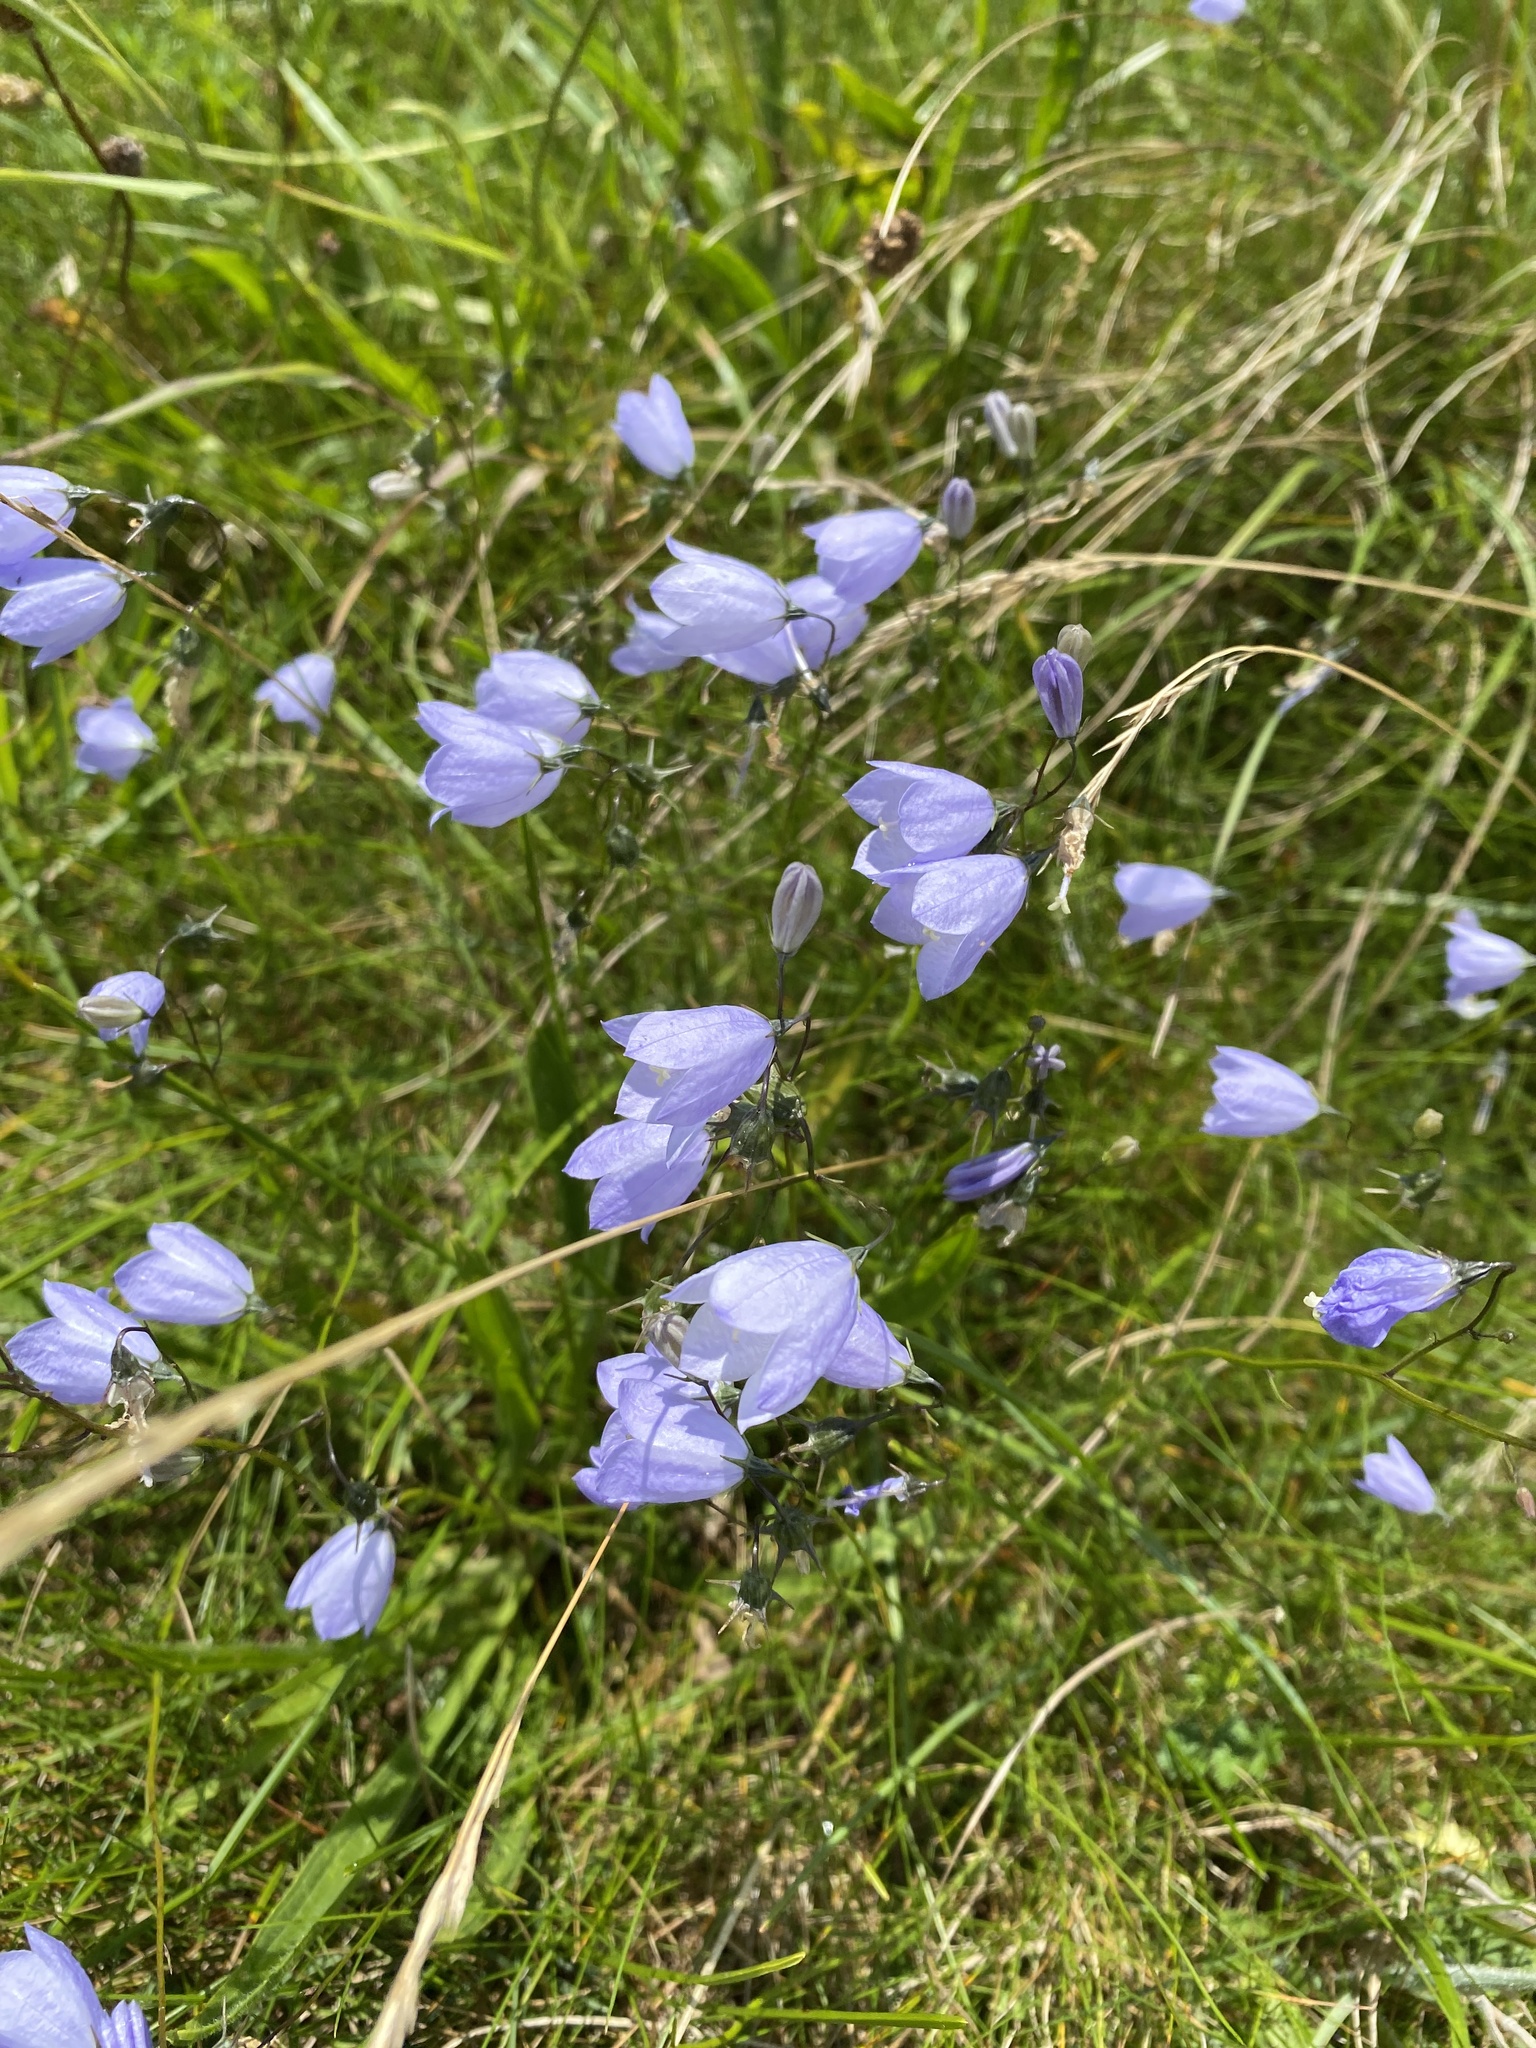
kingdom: Plantae
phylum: Tracheophyta
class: Magnoliopsida
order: Asterales
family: Campanulaceae
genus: Campanula
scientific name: Campanula rotundifolia
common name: Harebell
